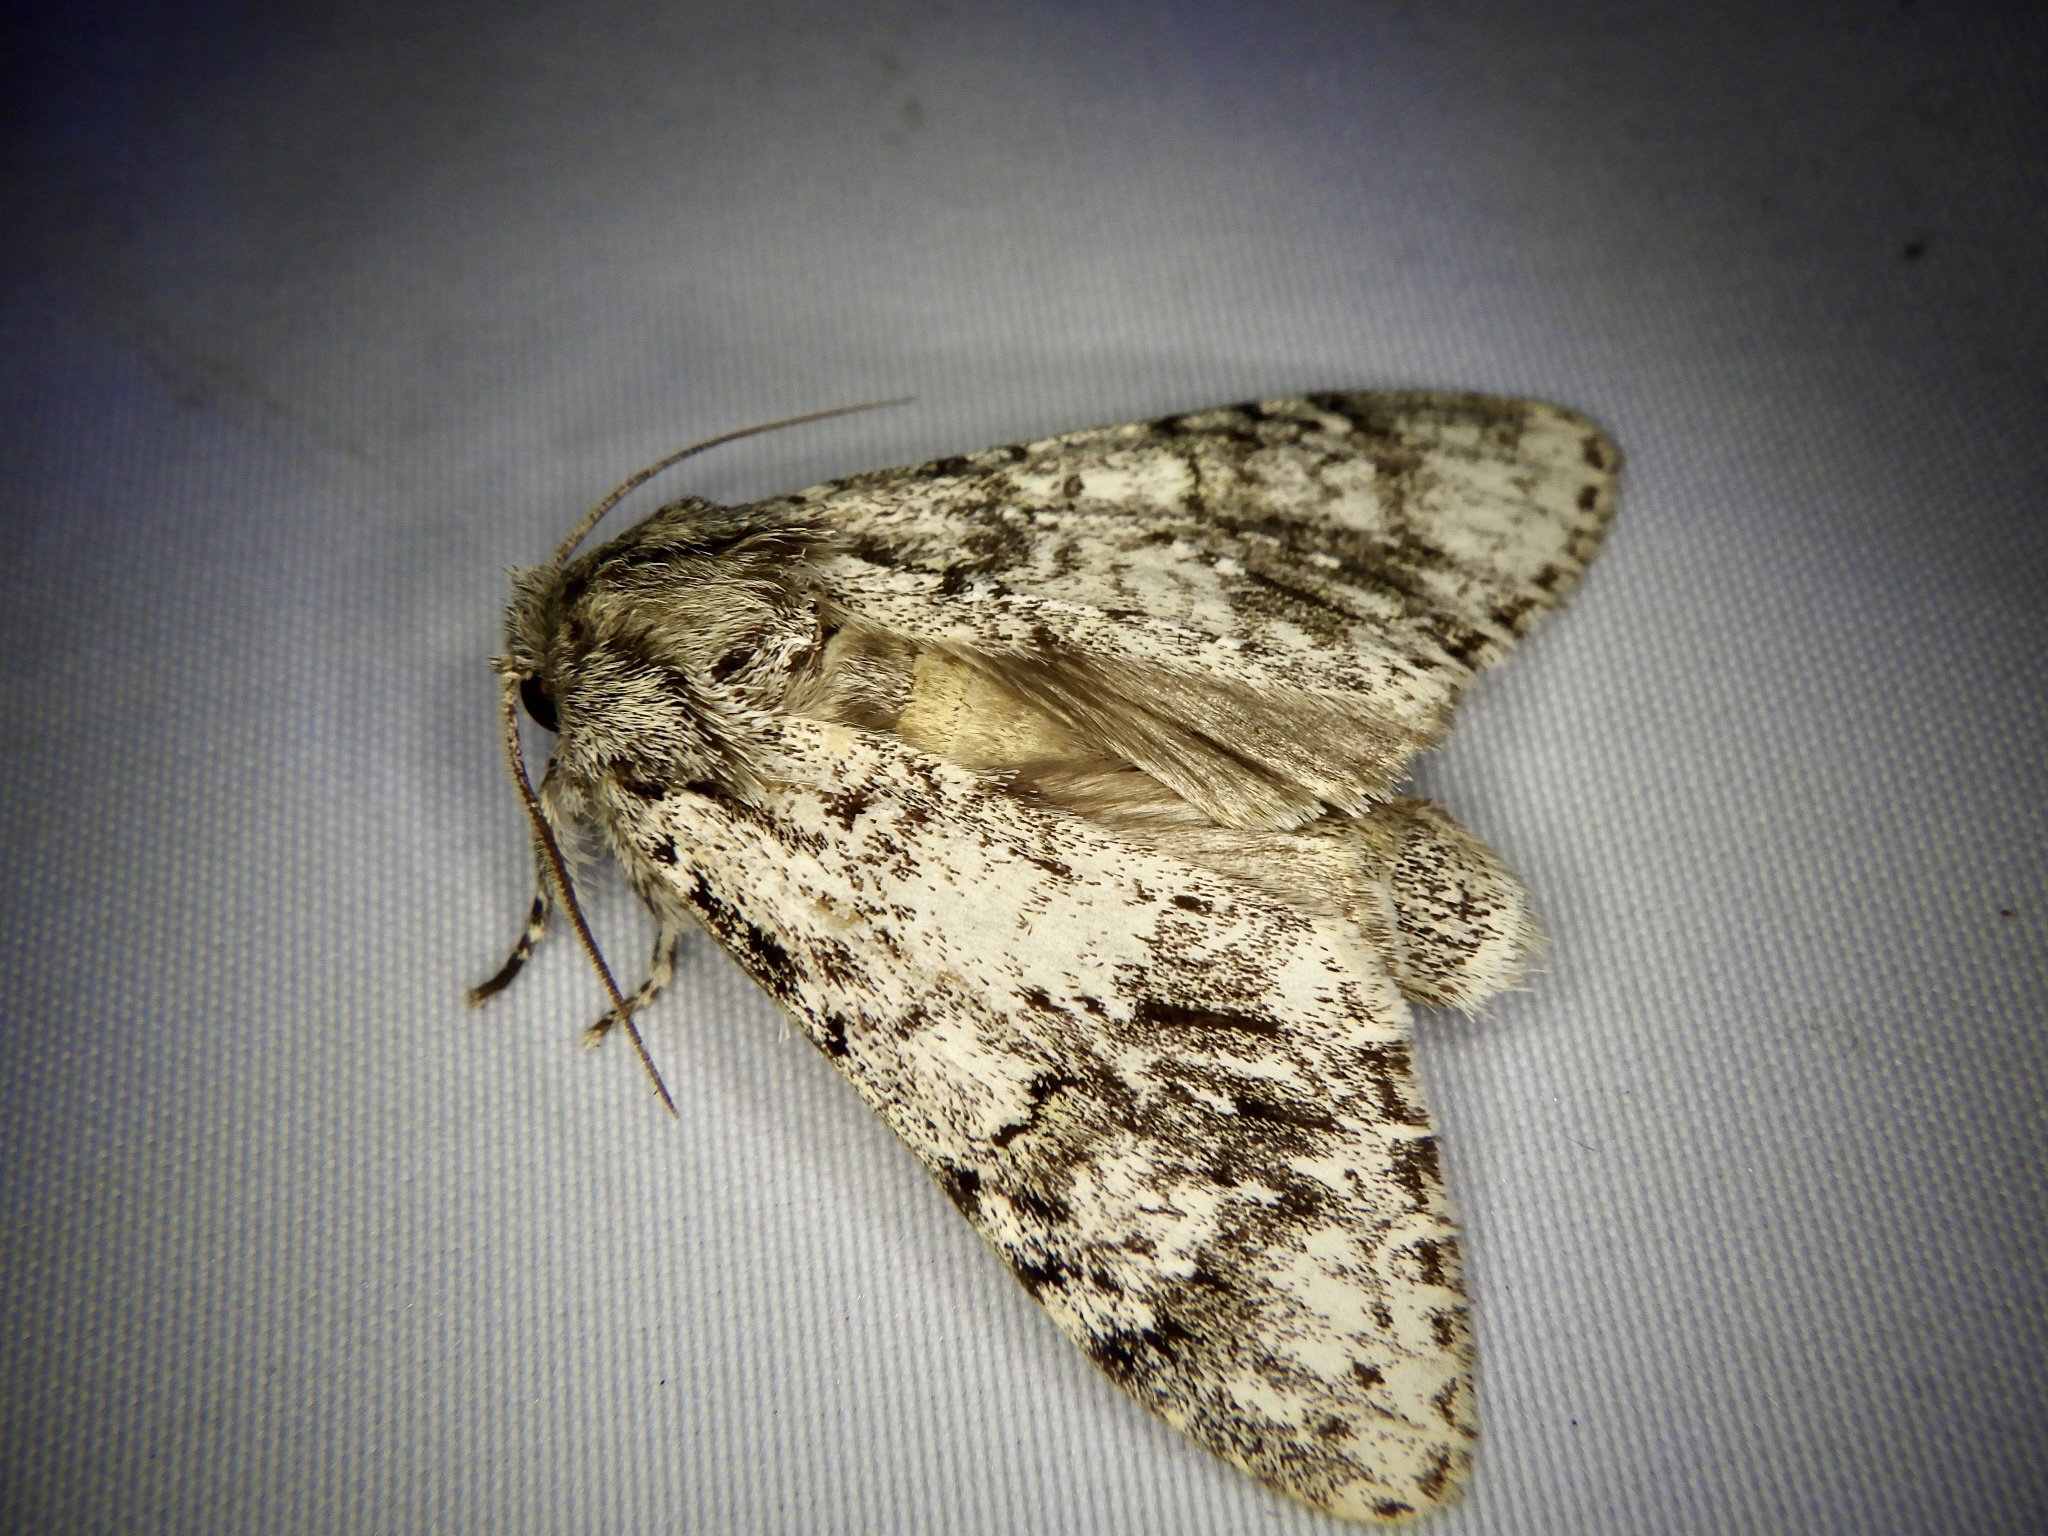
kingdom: Animalia
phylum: Arthropoda
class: Insecta
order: Lepidoptera
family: Notodontidae
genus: Pheosiopsis
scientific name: Pheosiopsis cinerea
